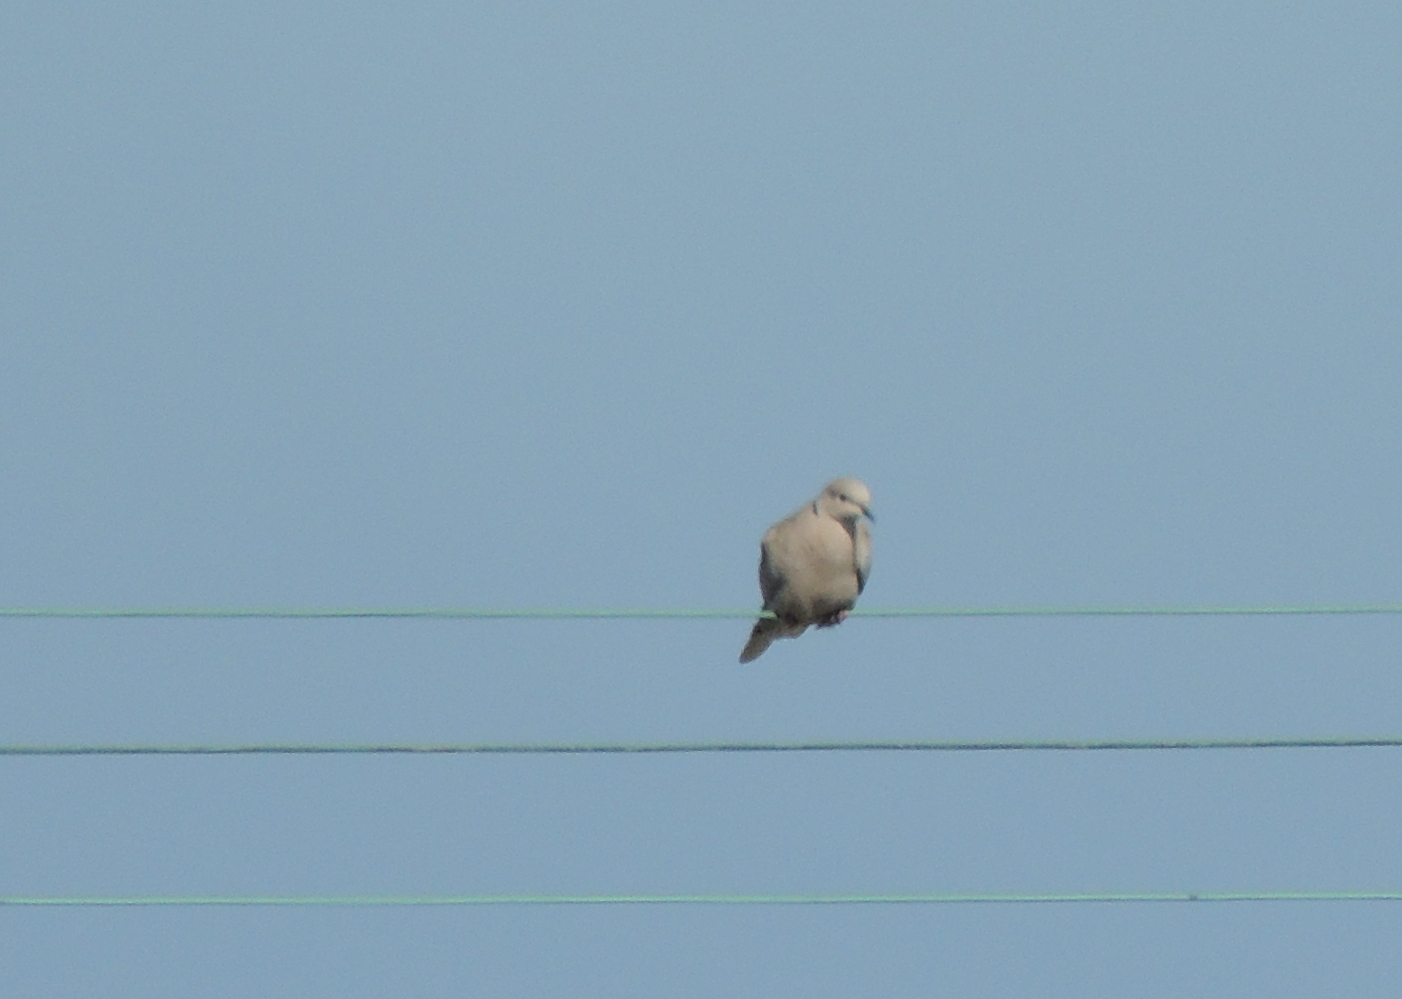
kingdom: Animalia
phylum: Chordata
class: Aves
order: Columbiformes
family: Columbidae
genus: Streptopelia
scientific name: Streptopelia decaocto
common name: Eurasian collared dove
